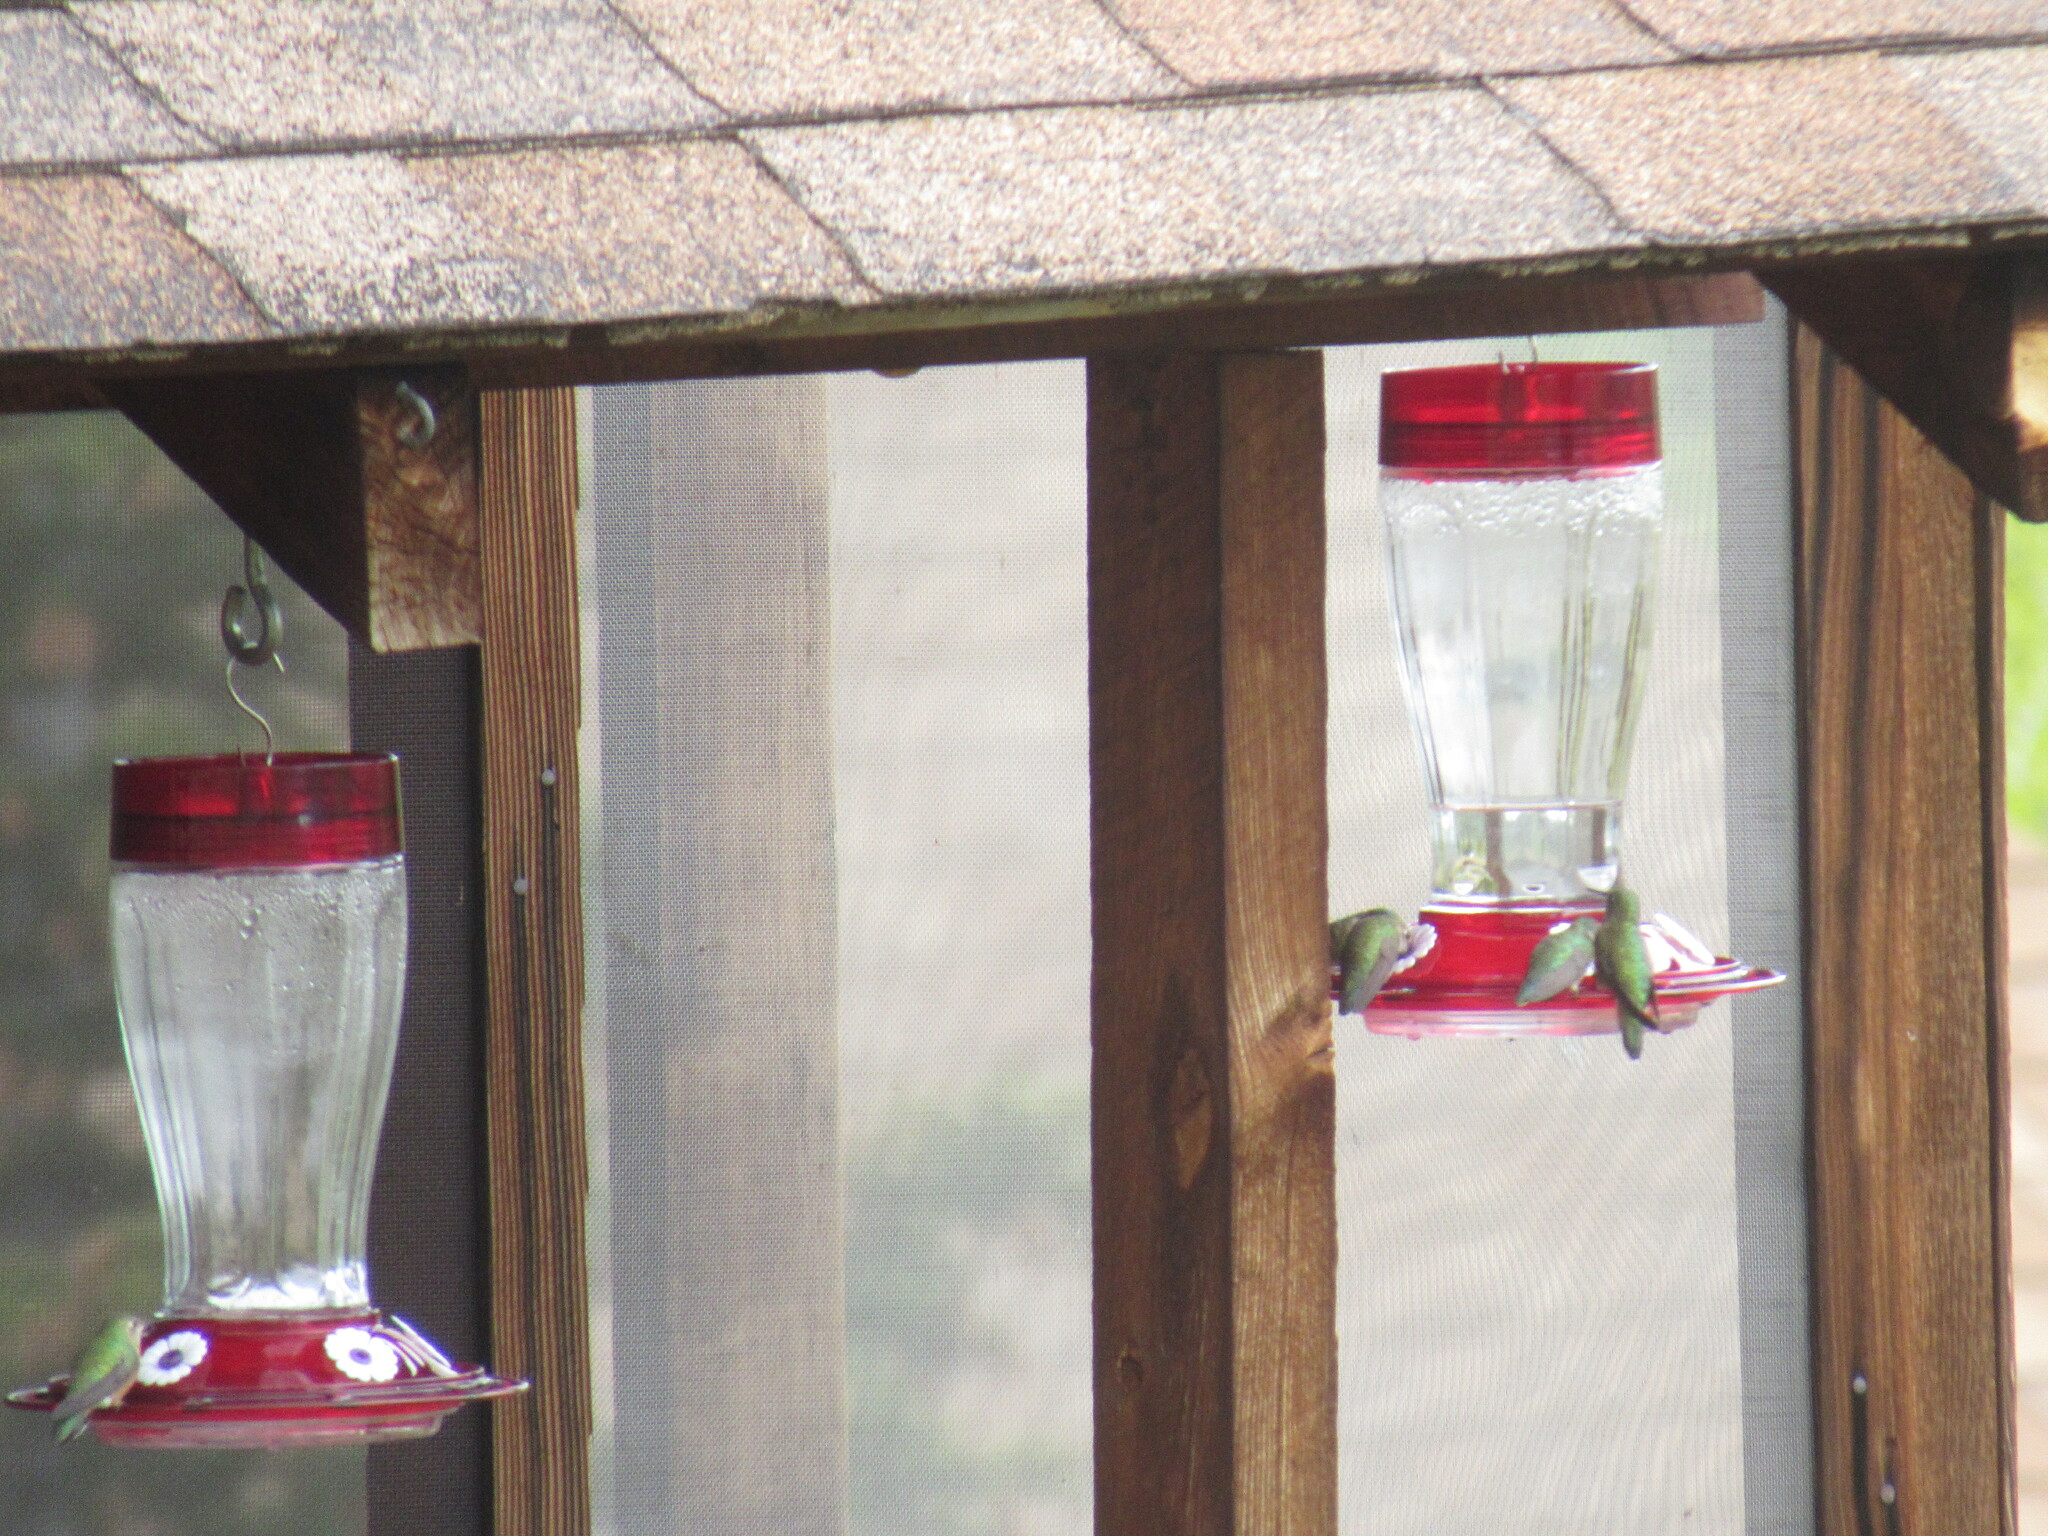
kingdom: Animalia
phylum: Chordata
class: Aves
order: Apodiformes
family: Trochilidae
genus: Selasphorus
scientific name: Selasphorus platycercus
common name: Broad-tailed hummingbird
